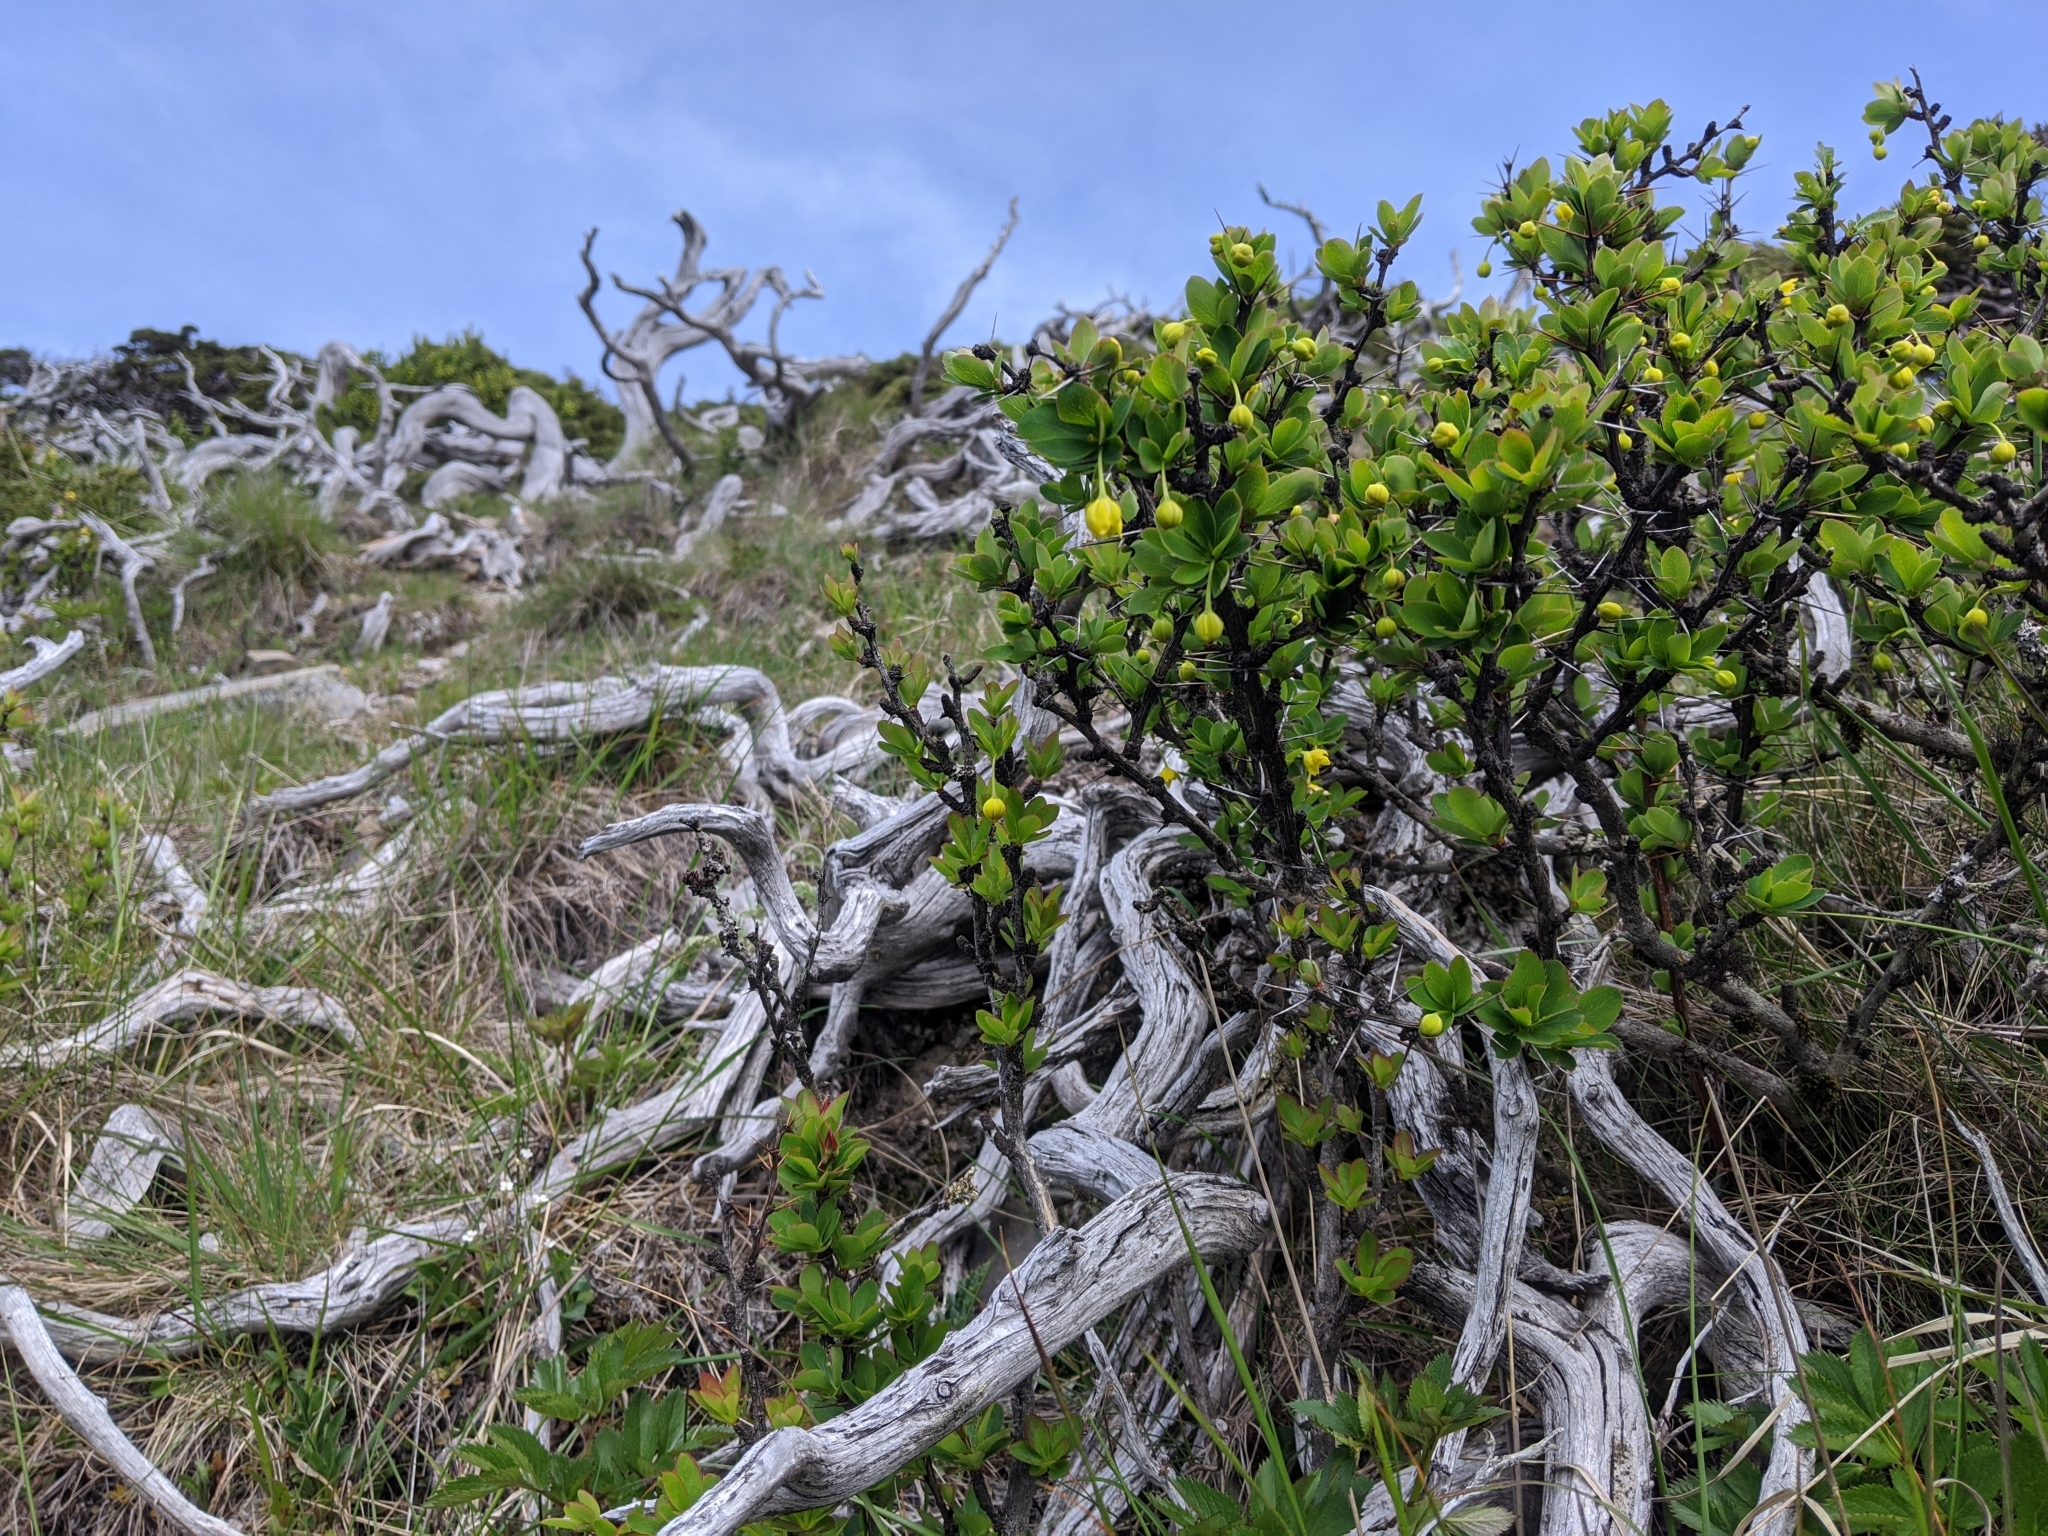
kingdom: Plantae
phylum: Tracheophyta
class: Magnoliopsida
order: Ranunculales
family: Berberidaceae
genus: Berberis
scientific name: Berberis morrisonensis
